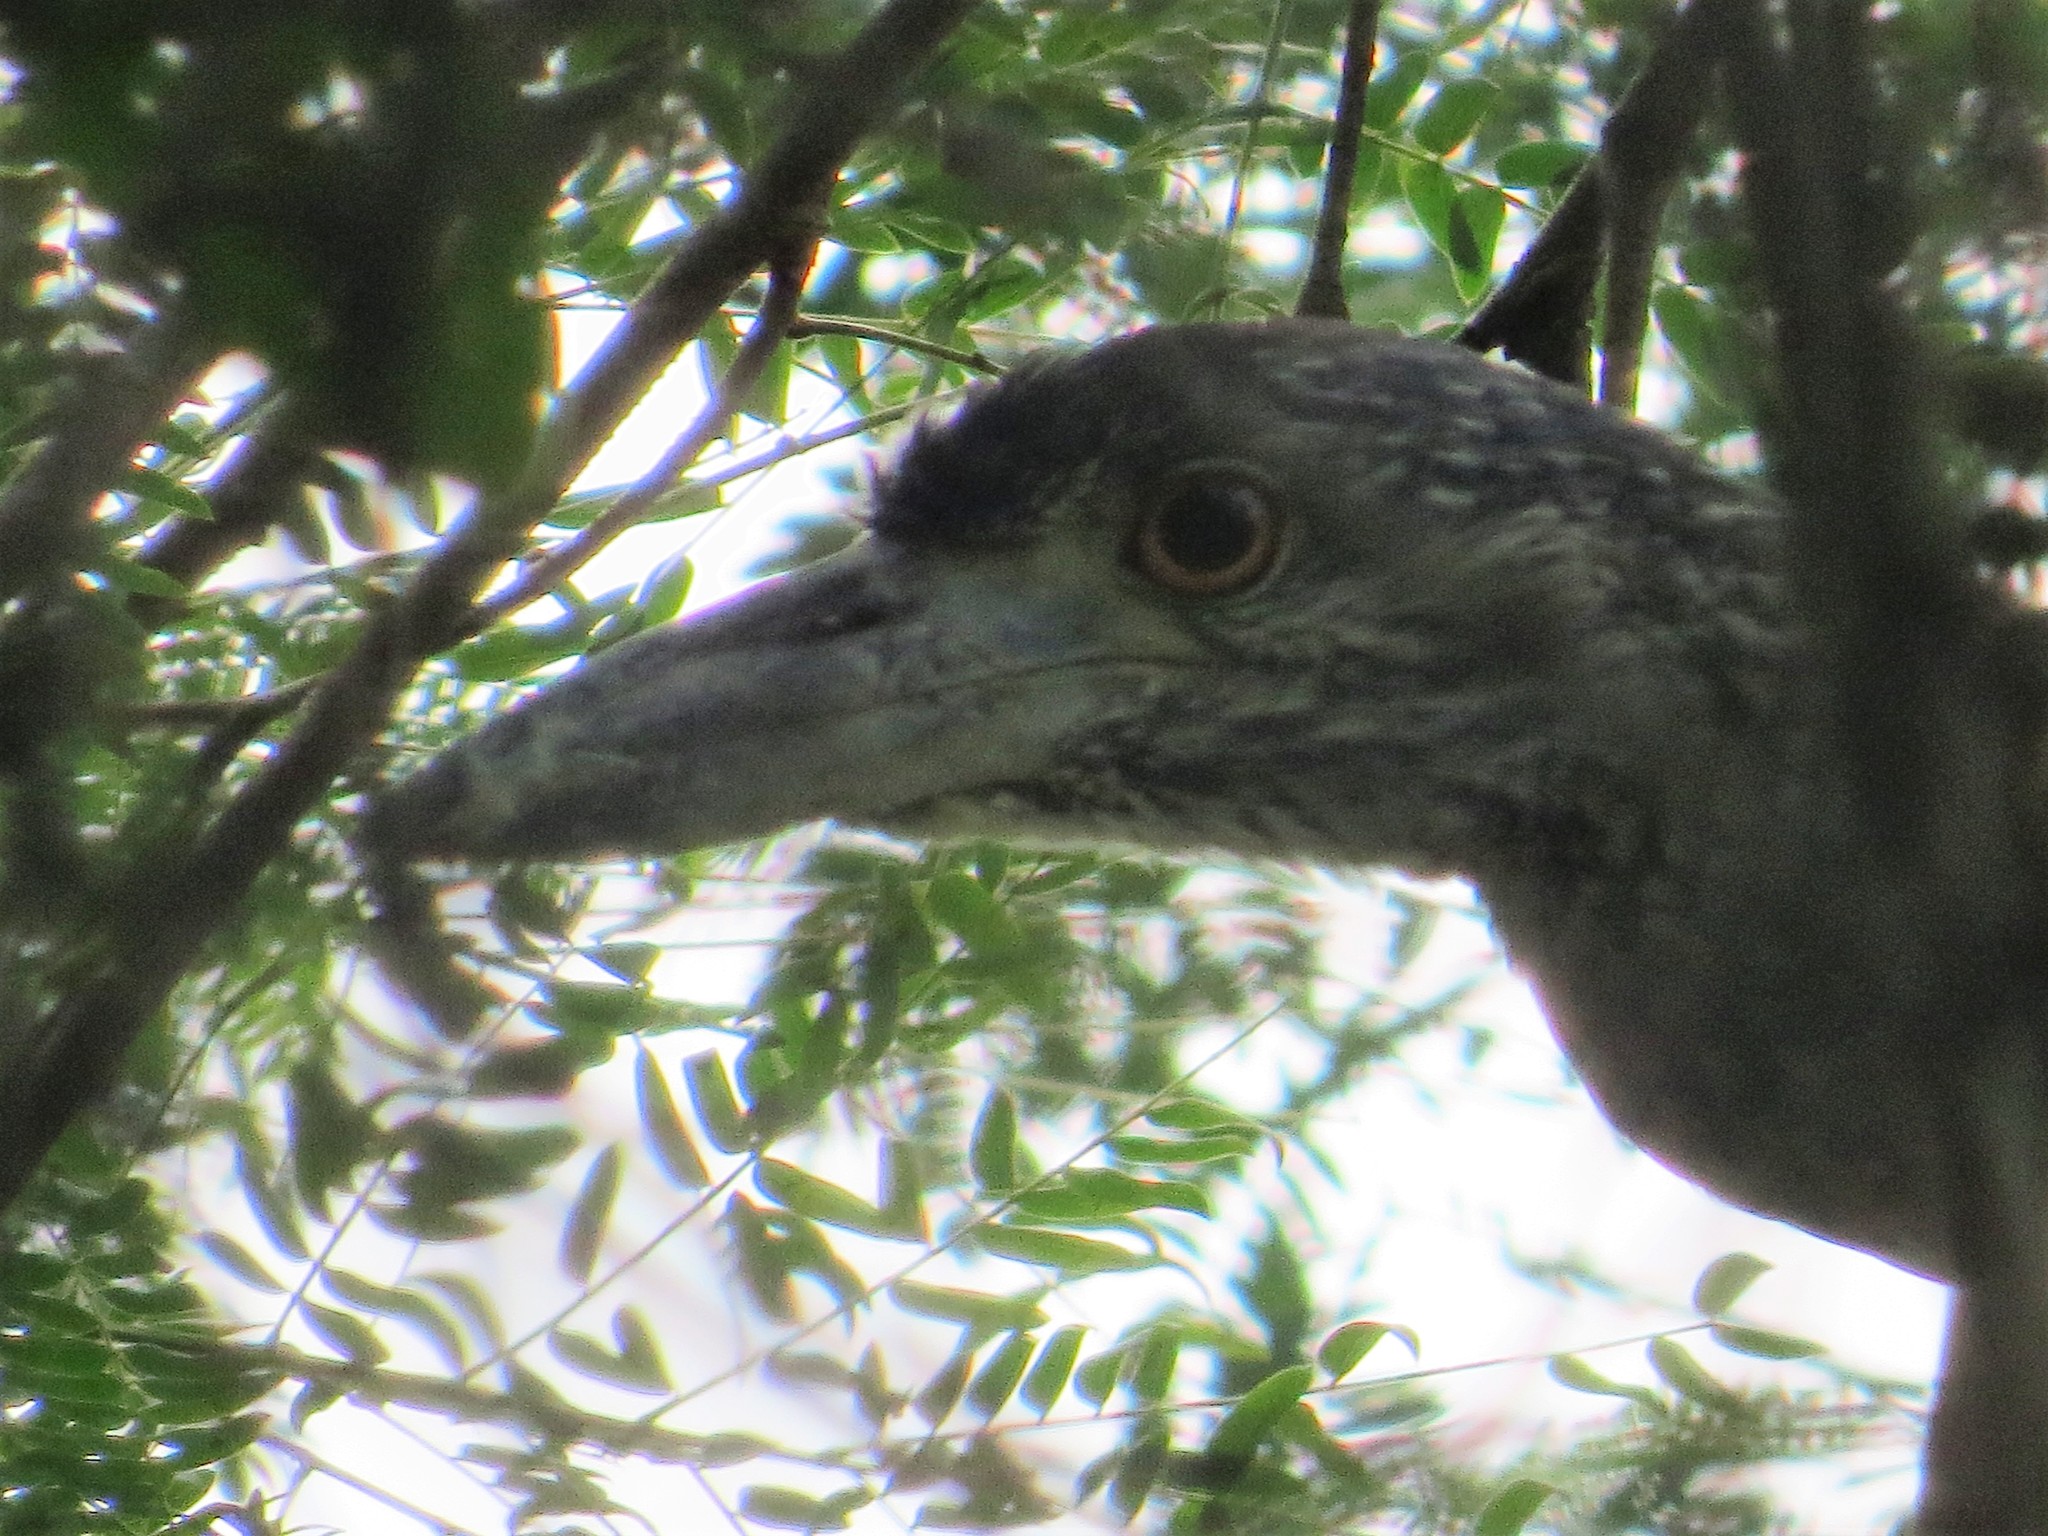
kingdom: Animalia
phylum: Chordata
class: Aves
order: Pelecaniformes
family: Ardeidae
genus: Nyctanassa
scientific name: Nyctanassa violacea
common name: Yellow-crowned night heron
